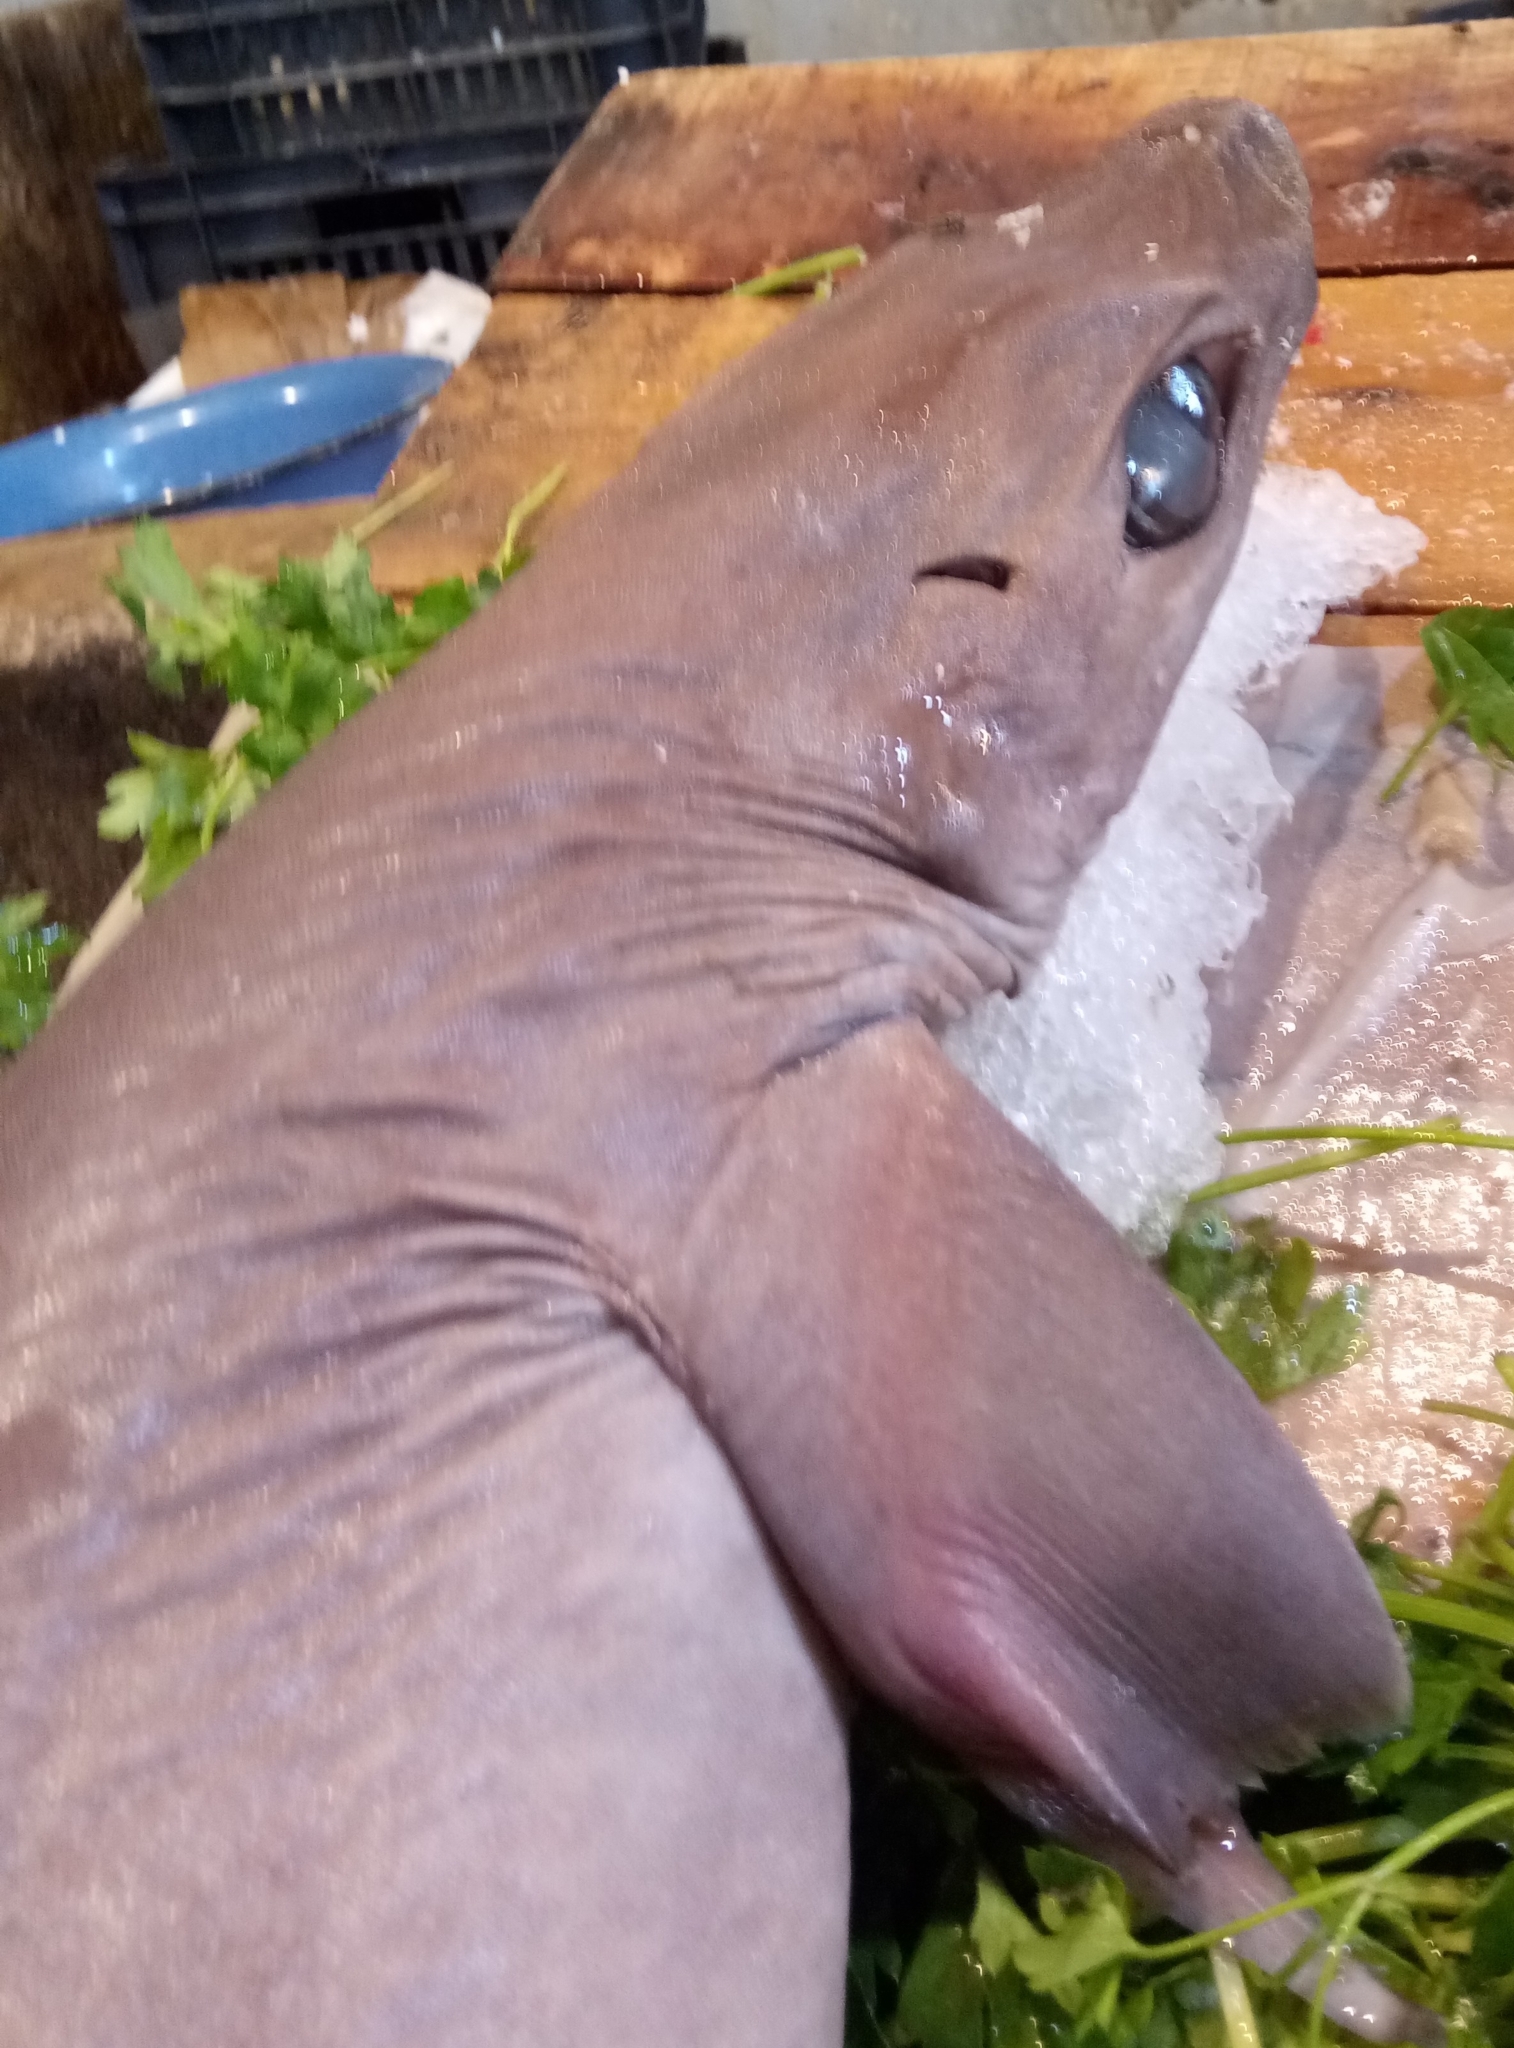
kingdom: Animalia
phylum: Chordata
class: Elasmobranchii
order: Squaliformes
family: Centrophoridae
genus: Centrophorus
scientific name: Centrophorus uyato
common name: Little gulper shark
